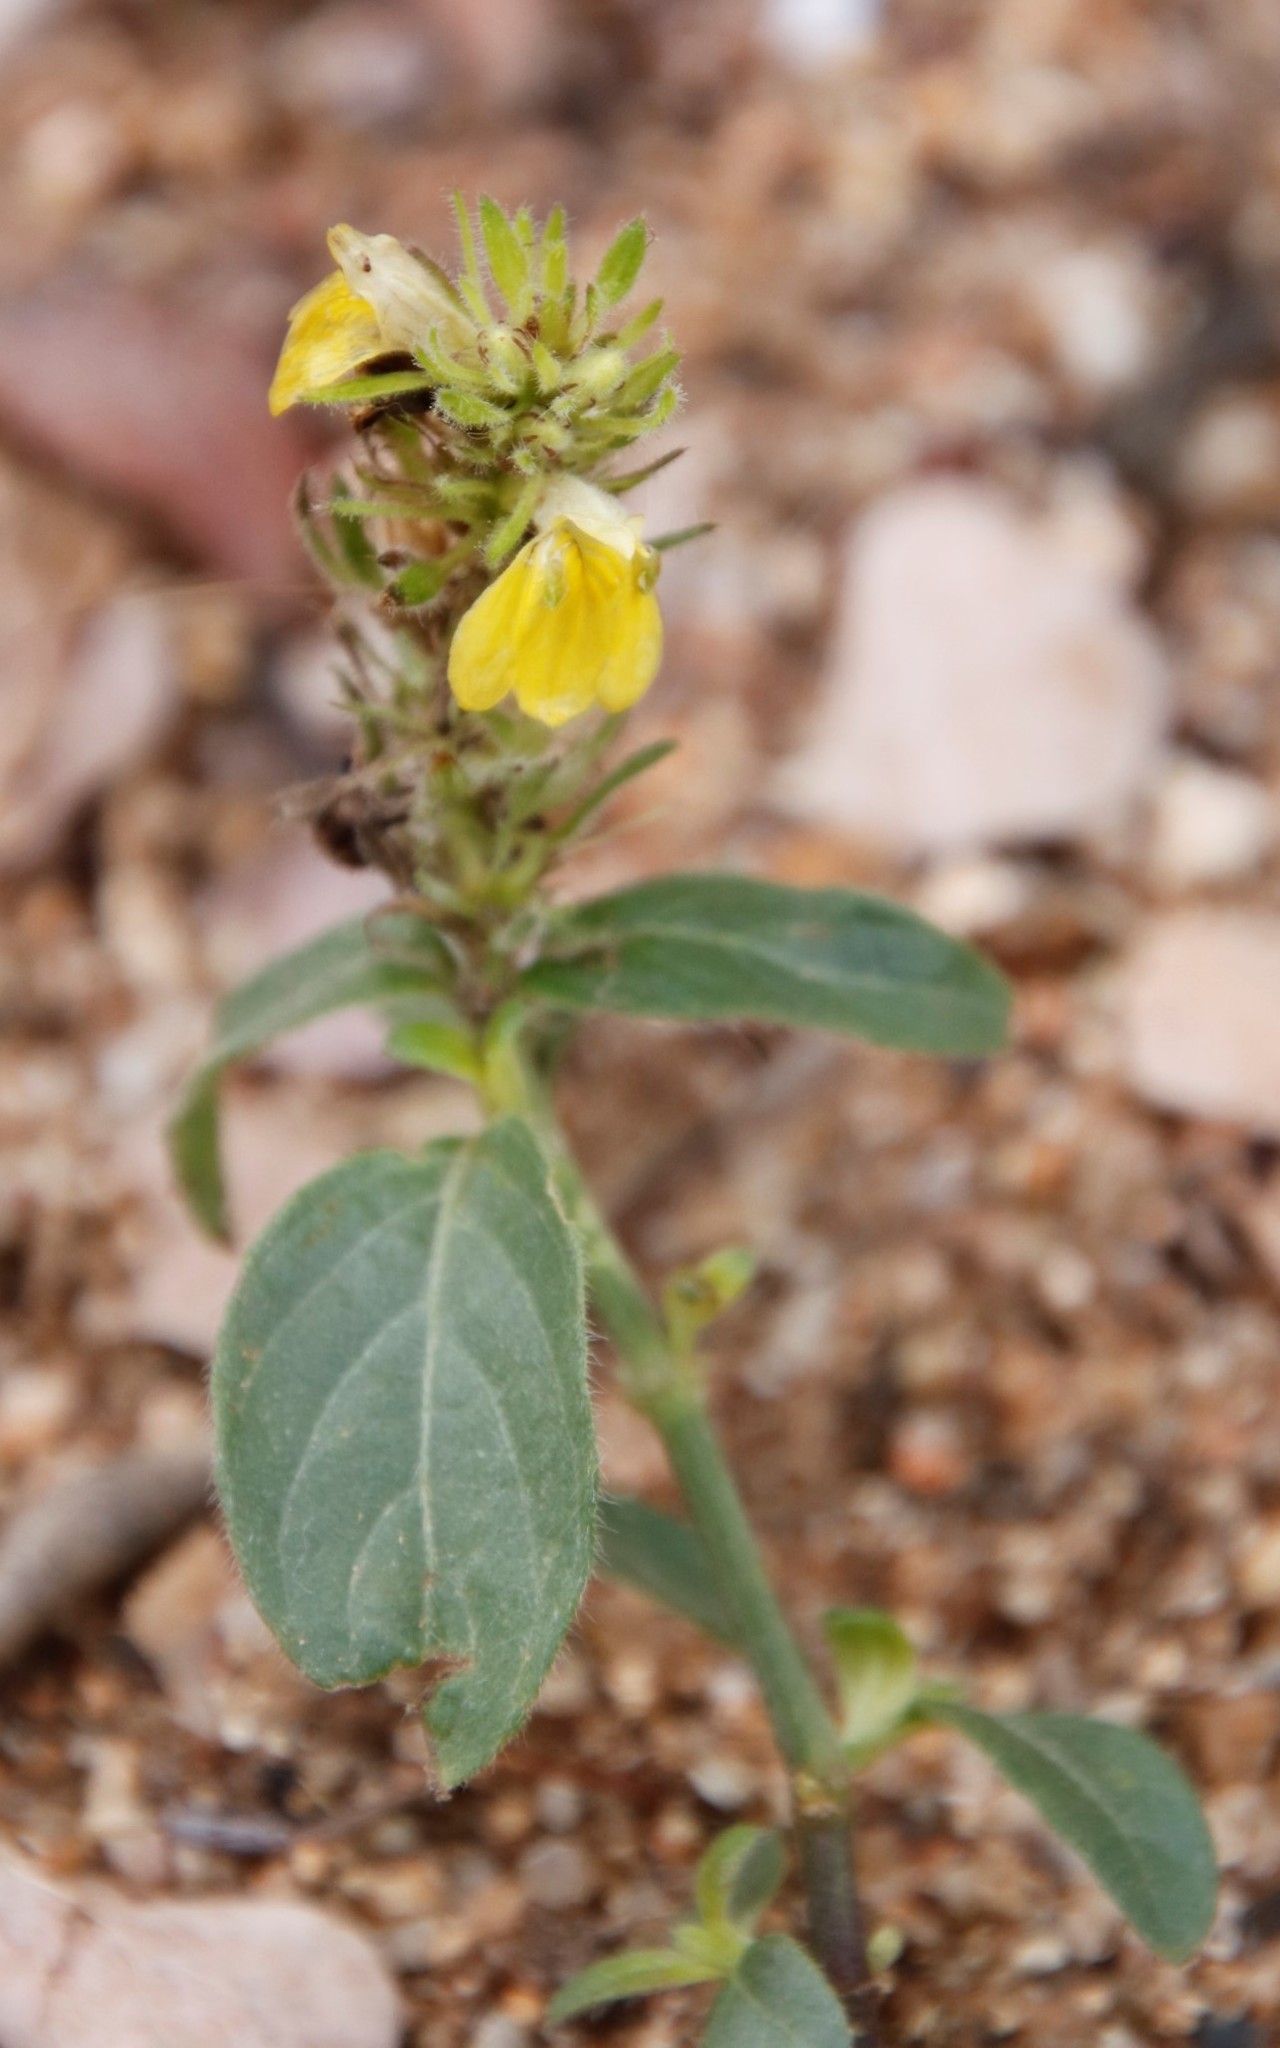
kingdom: Plantae
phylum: Tracheophyta
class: Magnoliopsida
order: Lamiales
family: Acanthaceae
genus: Justicia
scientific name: Justicia flava
